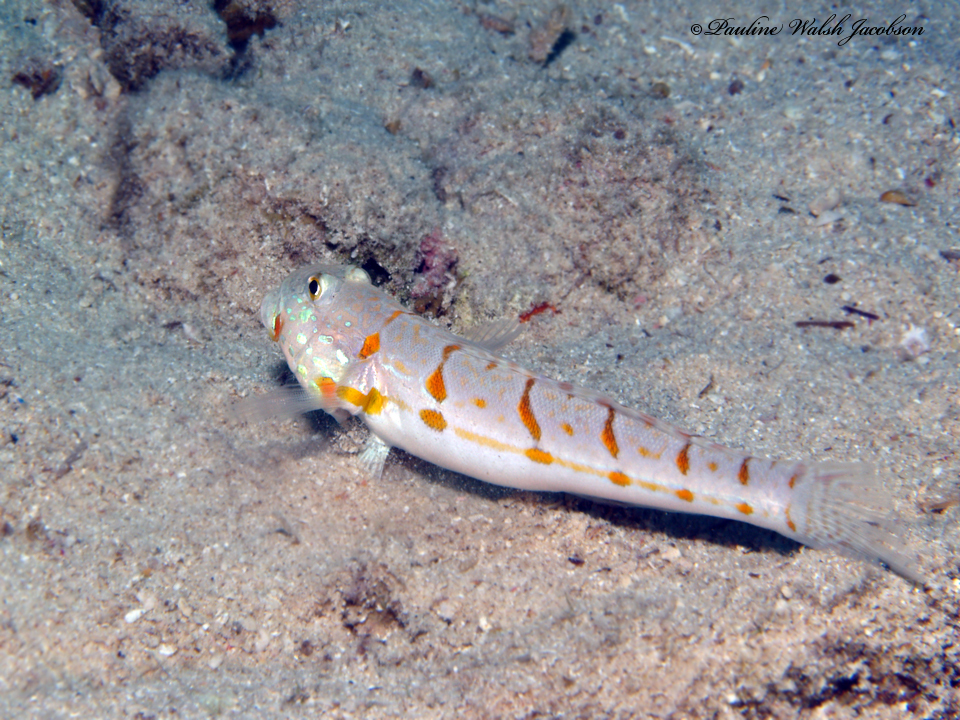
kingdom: Animalia
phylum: Chordata
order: Perciformes
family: Gobiidae
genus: Valenciennea
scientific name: Valenciennea puellaris
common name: Orange-dashed goby
